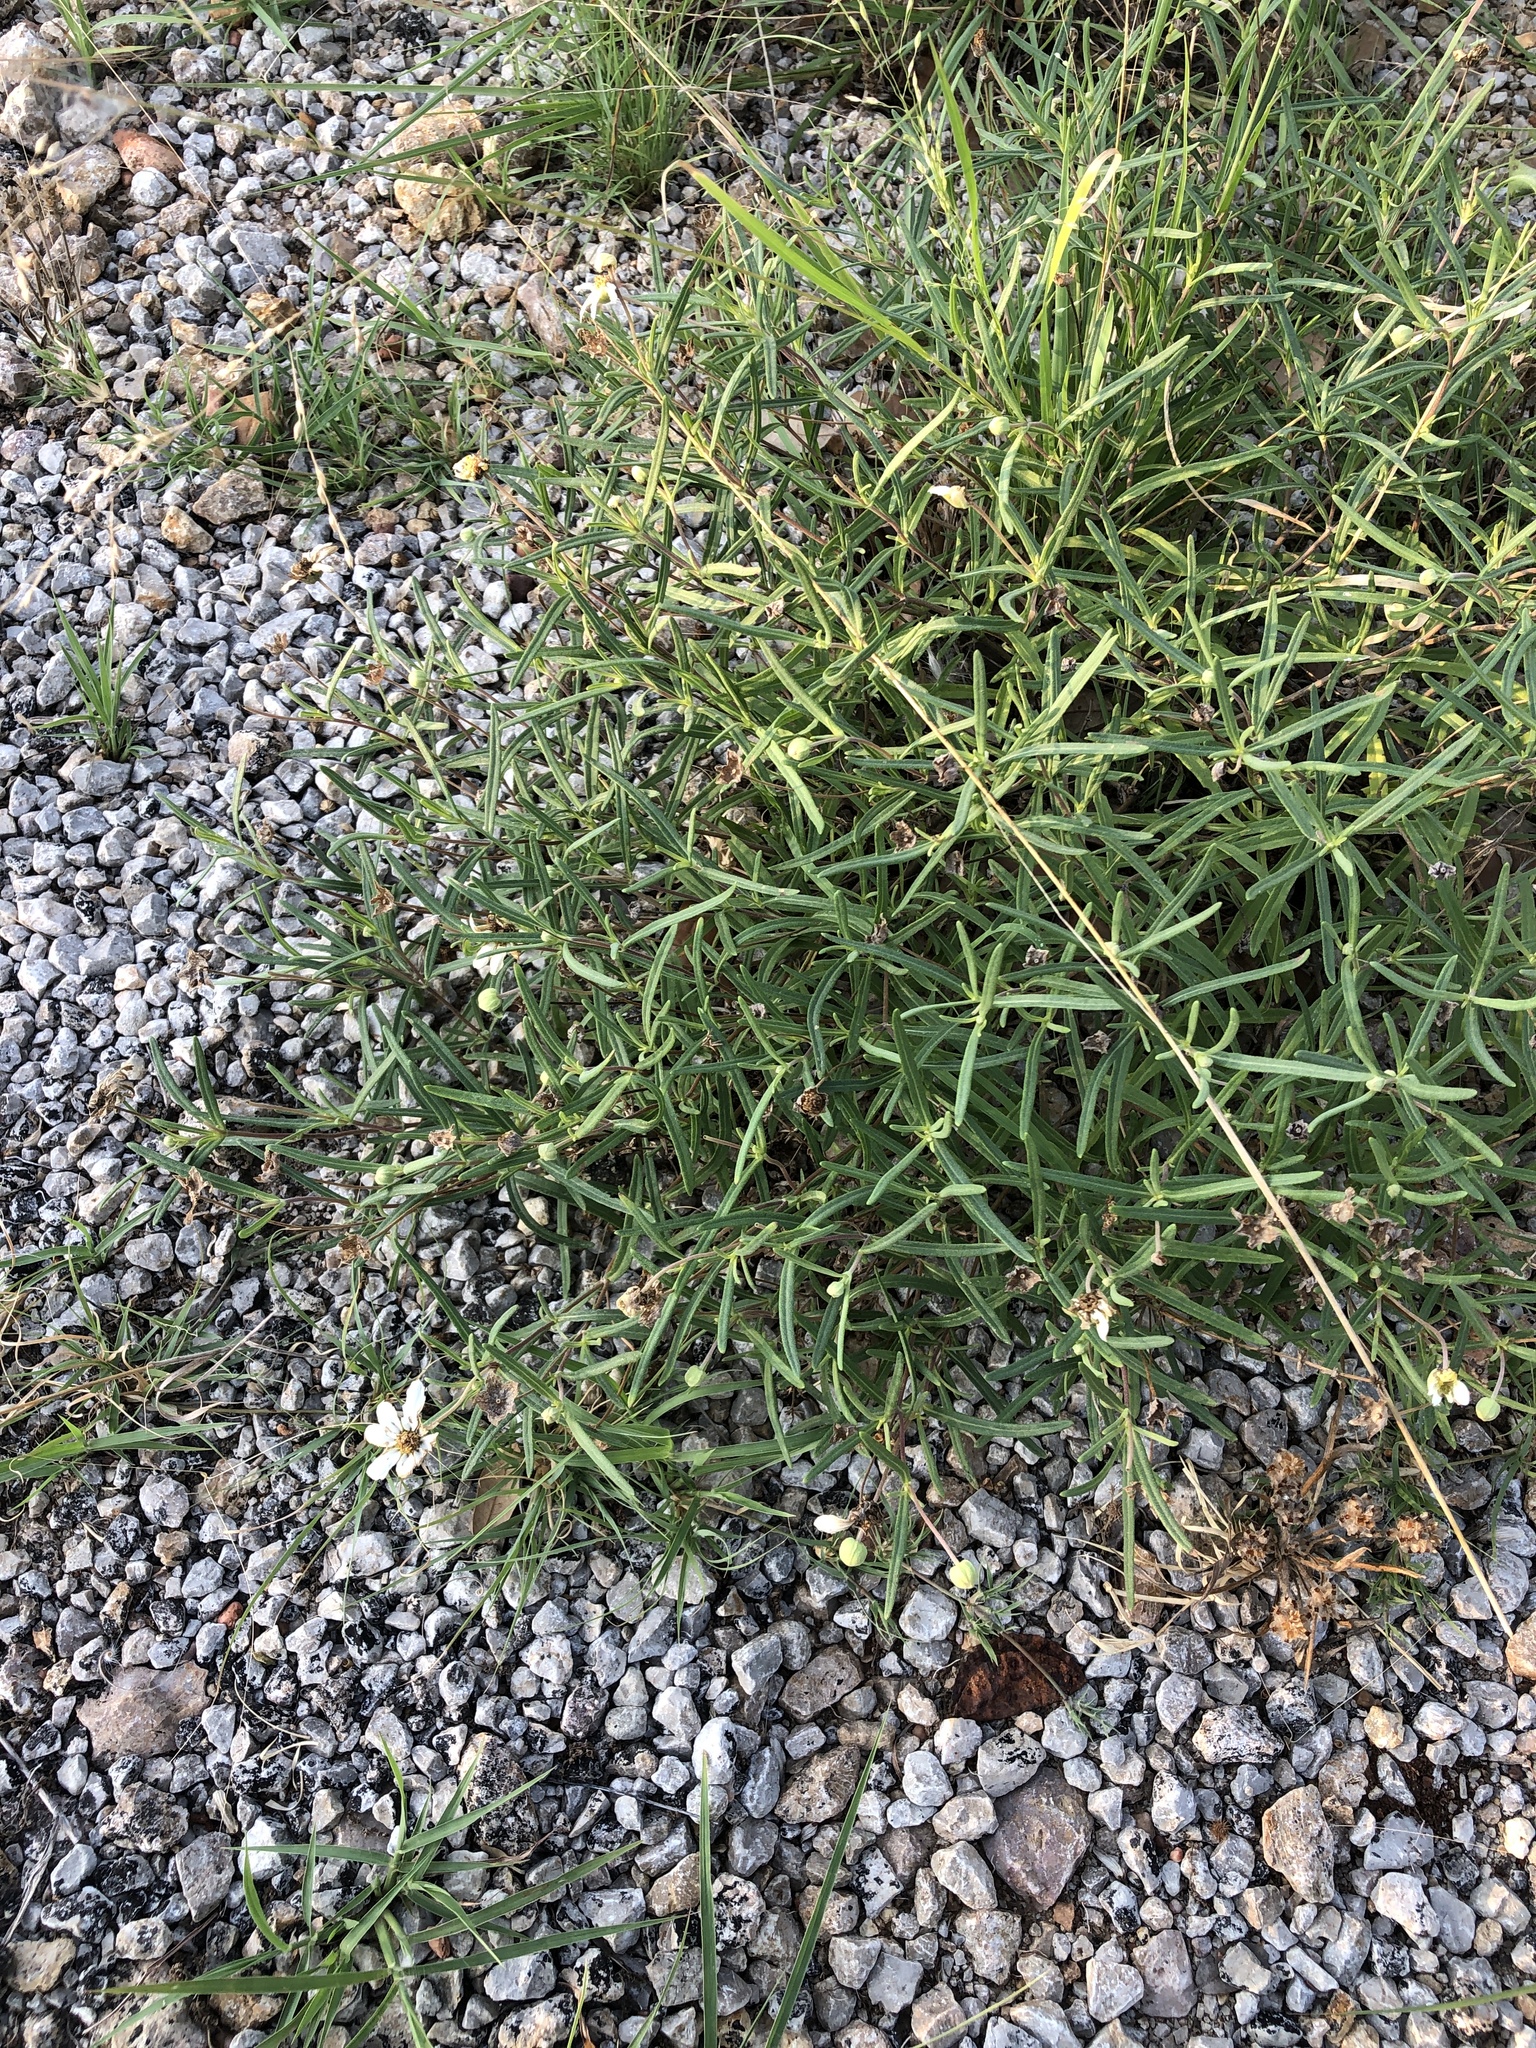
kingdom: Plantae
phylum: Tracheophyta
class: Magnoliopsida
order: Asterales
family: Asteraceae
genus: Melampodium
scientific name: Melampodium leucanthum
